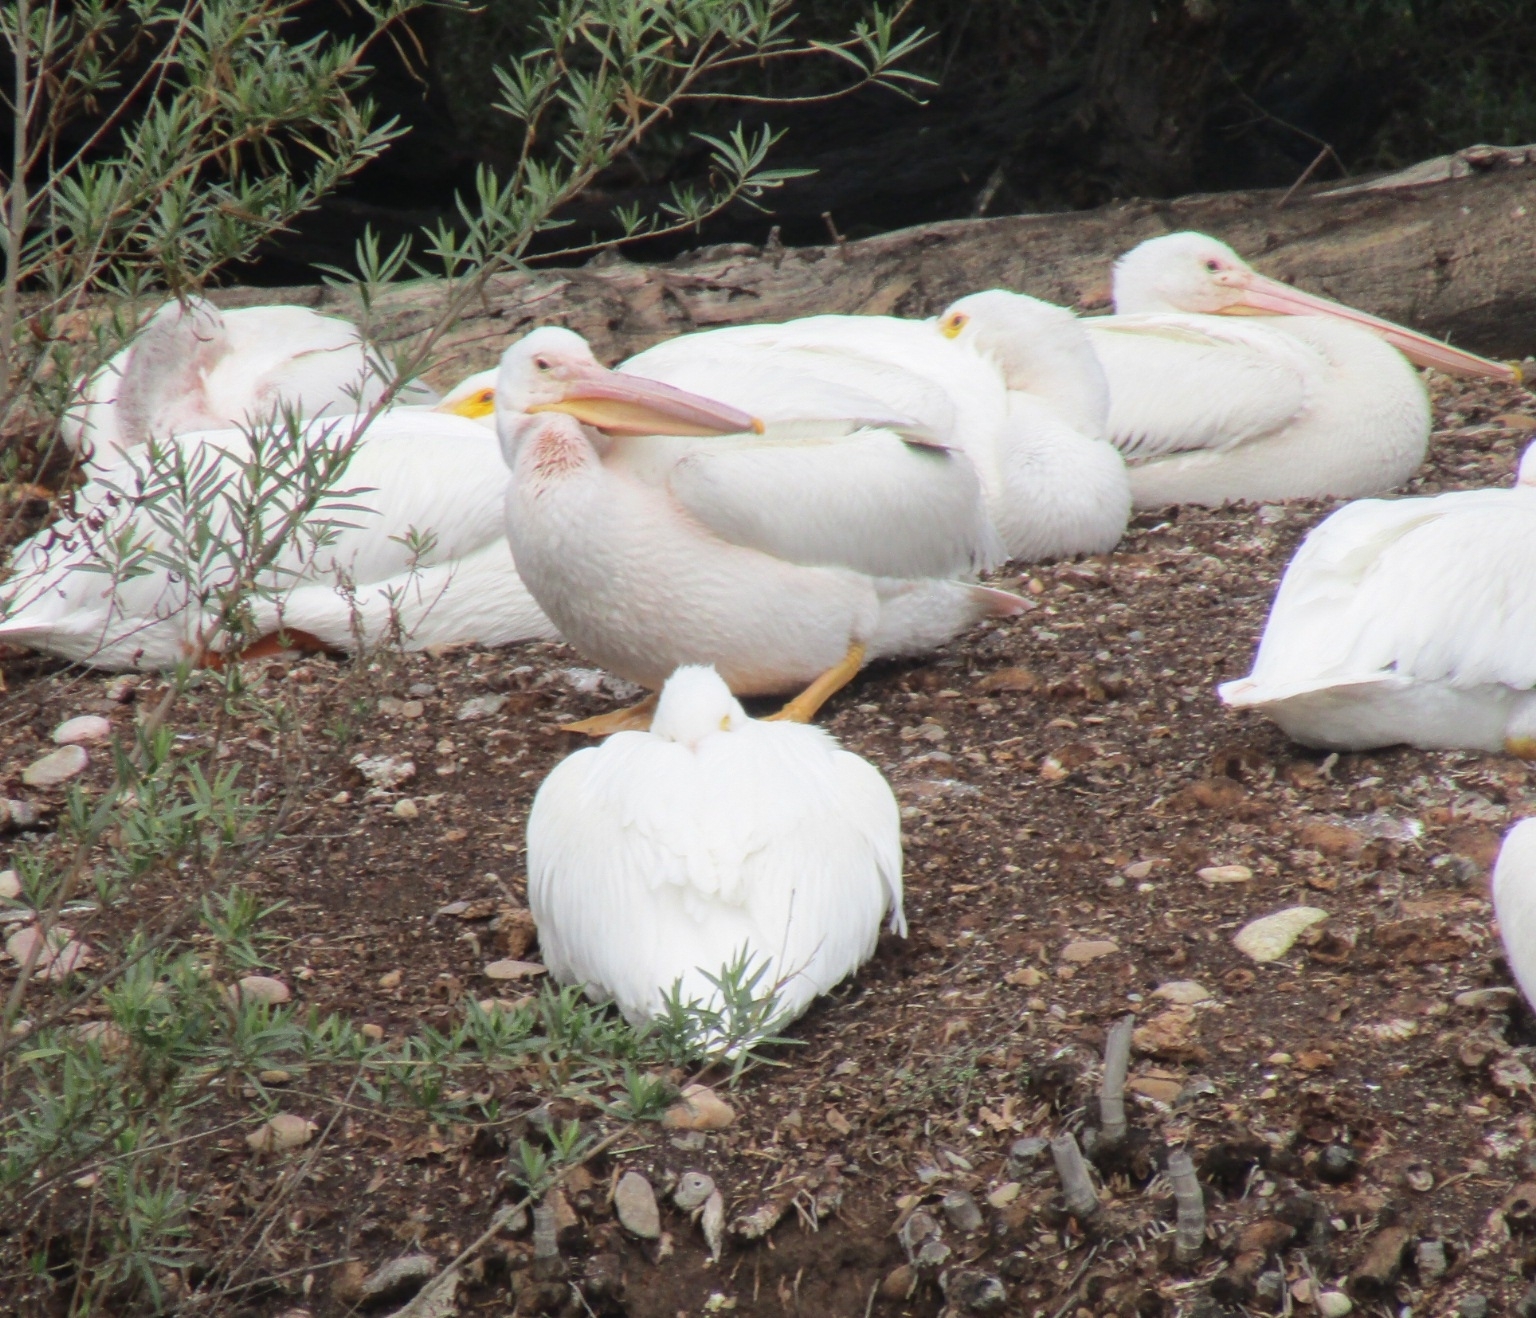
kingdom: Animalia
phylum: Chordata
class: Aves
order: Pelecaniformes
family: Pelecanidae
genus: Pelecanus
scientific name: Pelecanus erythrorhynchos
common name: American white pelican
